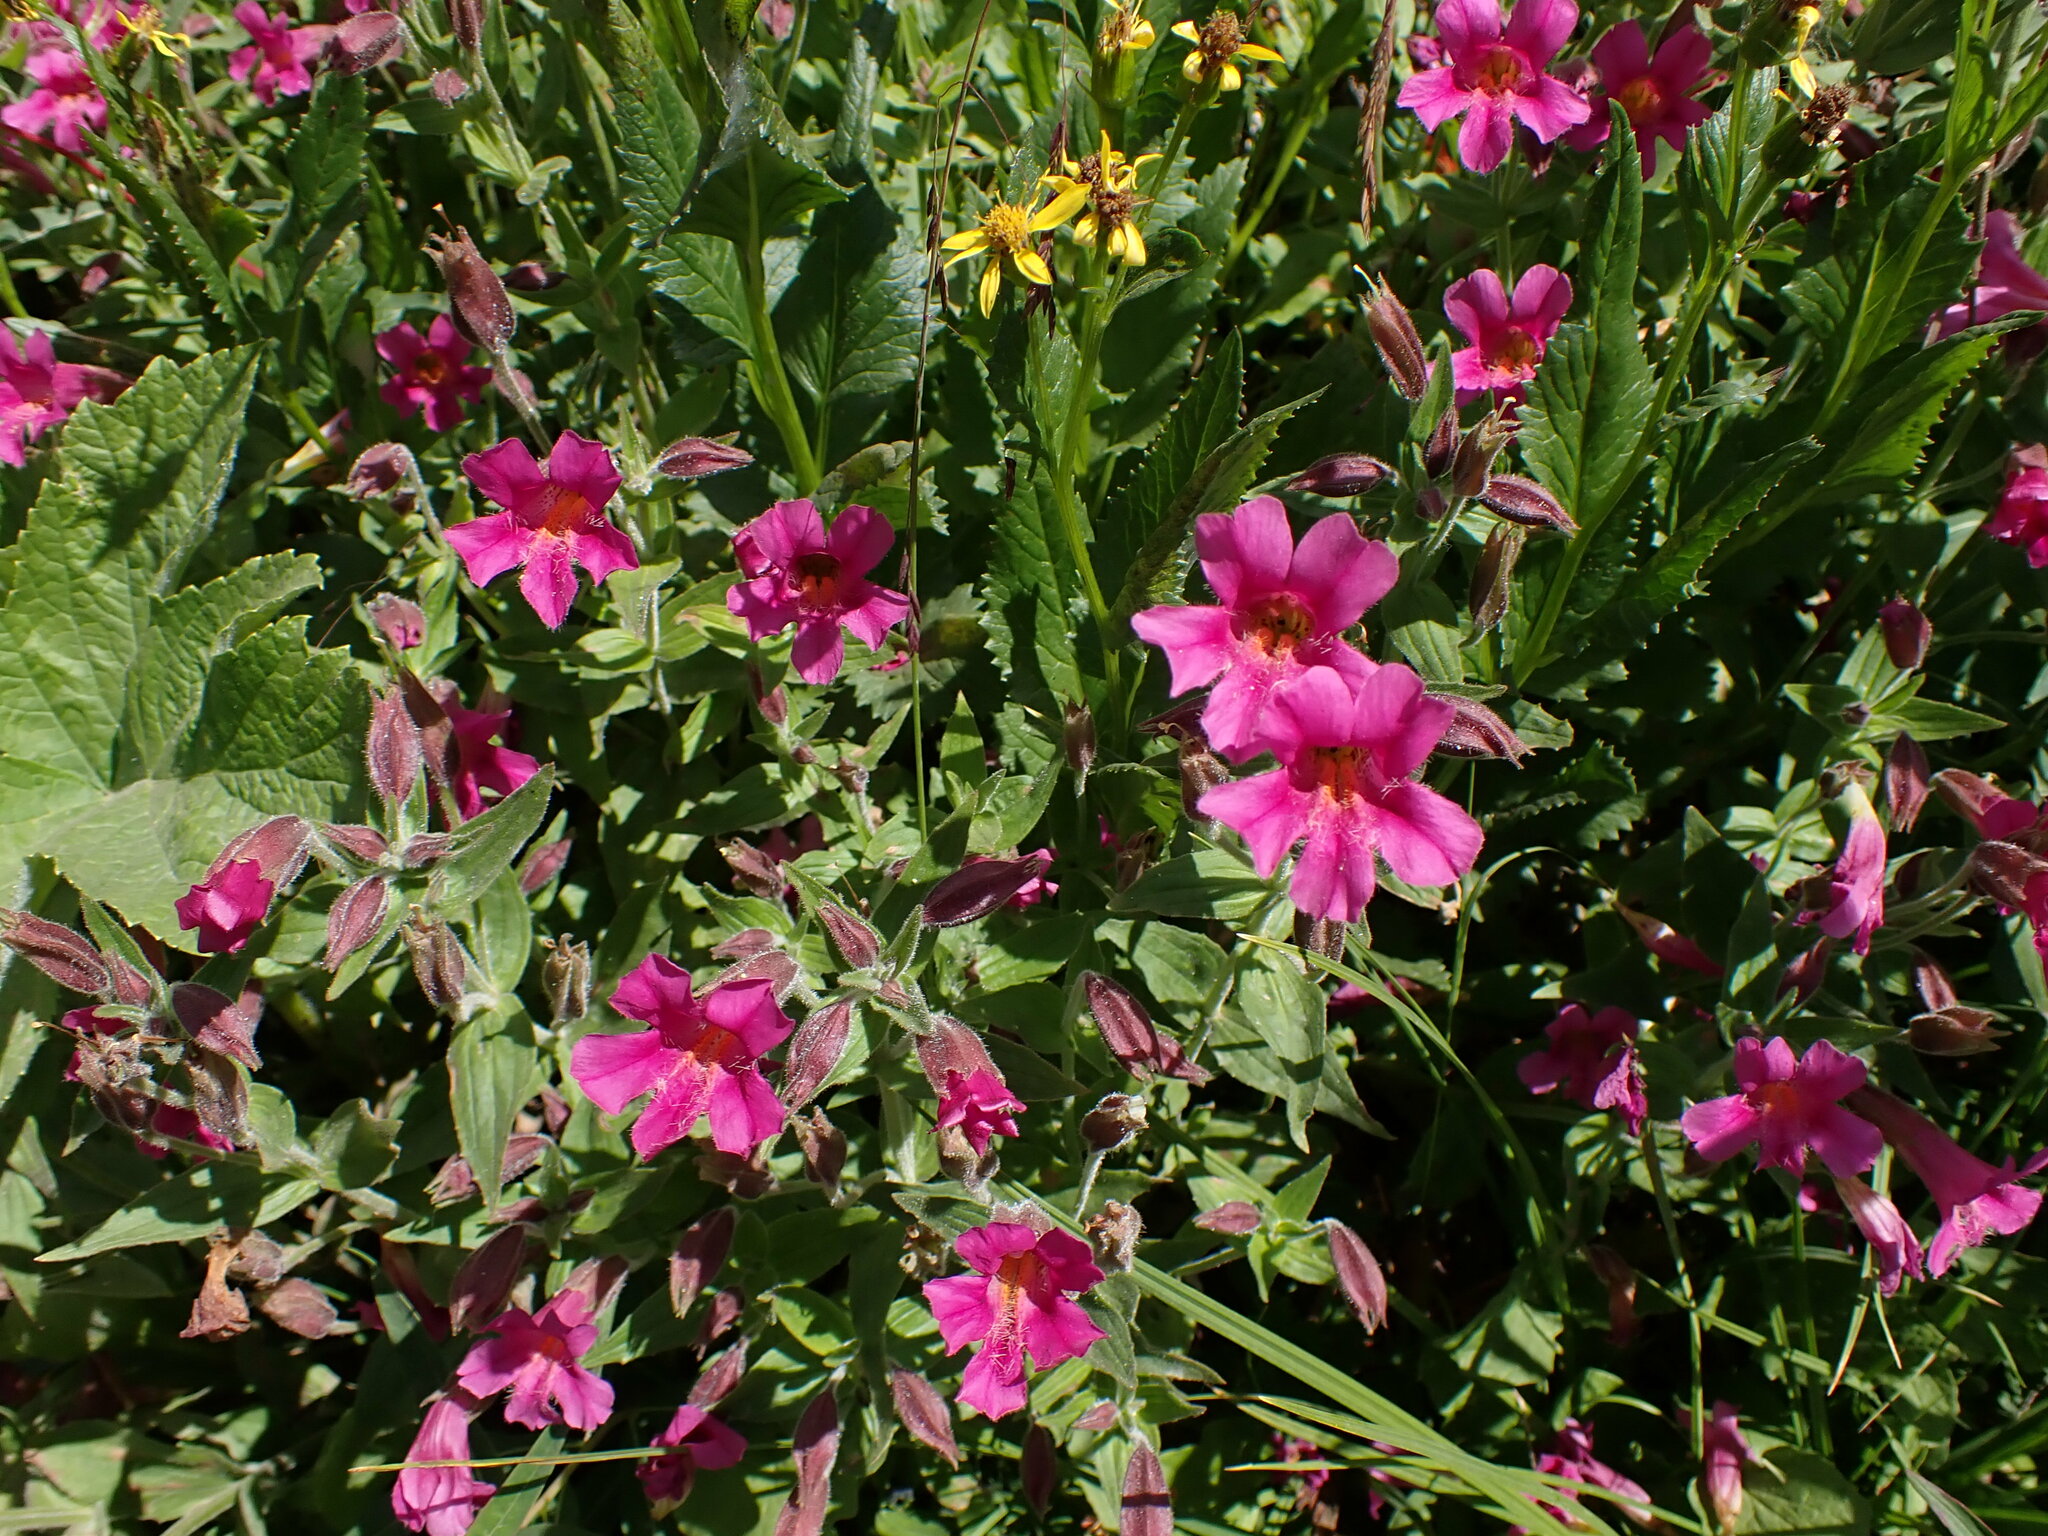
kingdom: Plantae
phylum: Tracheophyta
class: Magnoliopsida
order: Lamiales
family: Phrymaceae
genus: Erythranthe
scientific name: Erythranthe lewisii
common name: Lewis's monkey-flower
